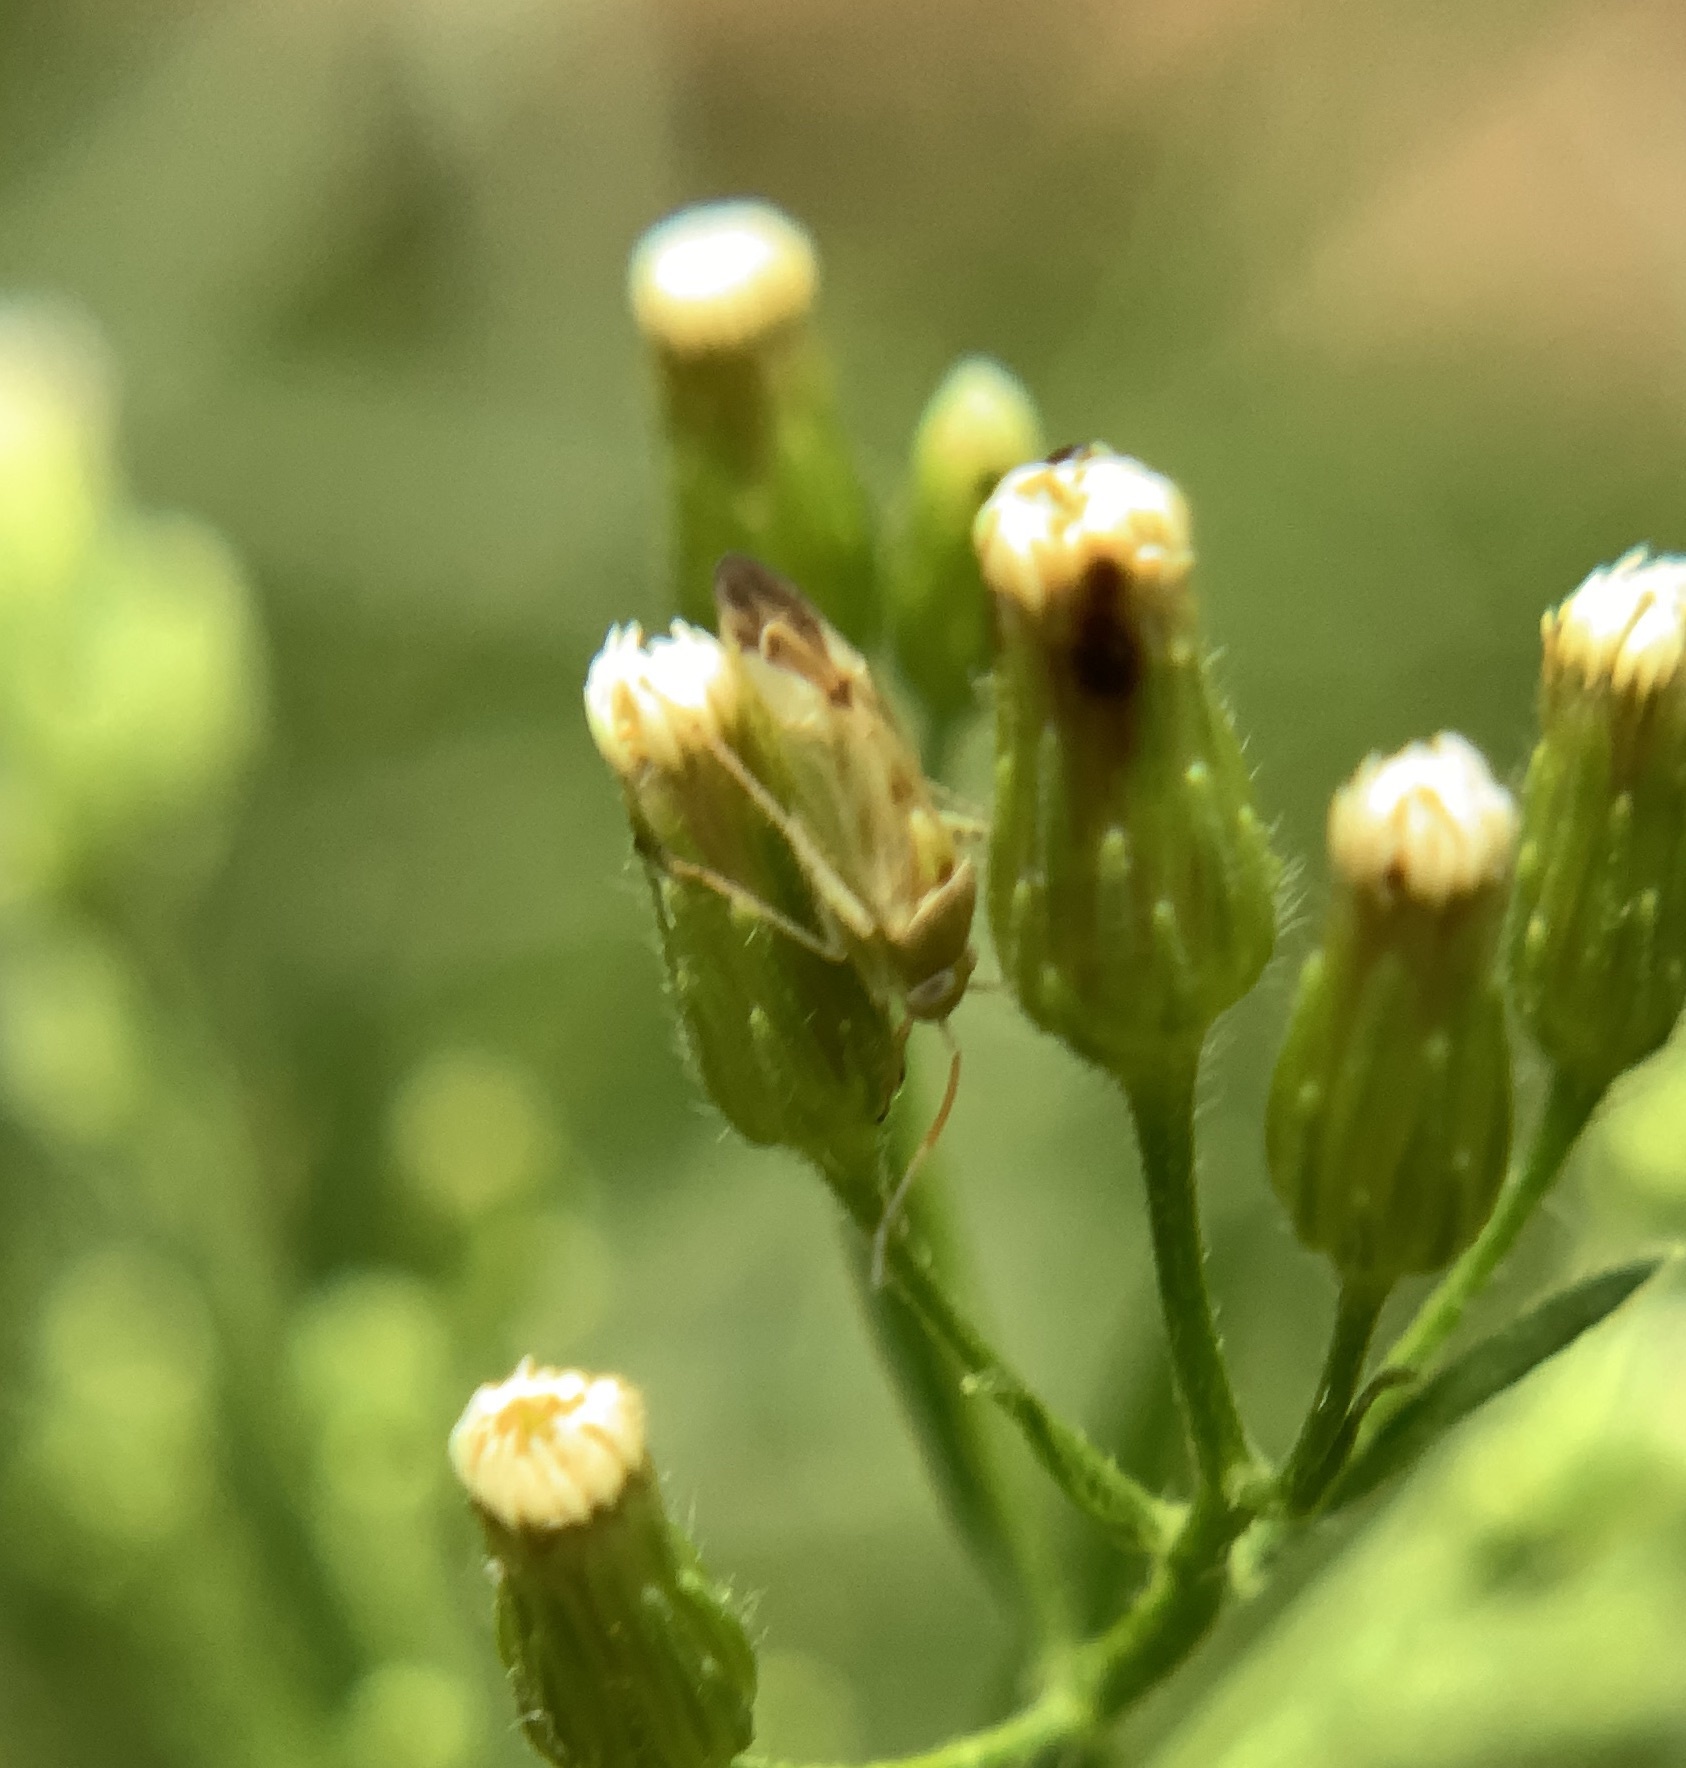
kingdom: Animalia
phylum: Arthropoda
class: Insecta
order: Hemiptera
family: Miridae
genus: Taylorilygus
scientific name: Taylorilygus apicalis
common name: Plant bug
